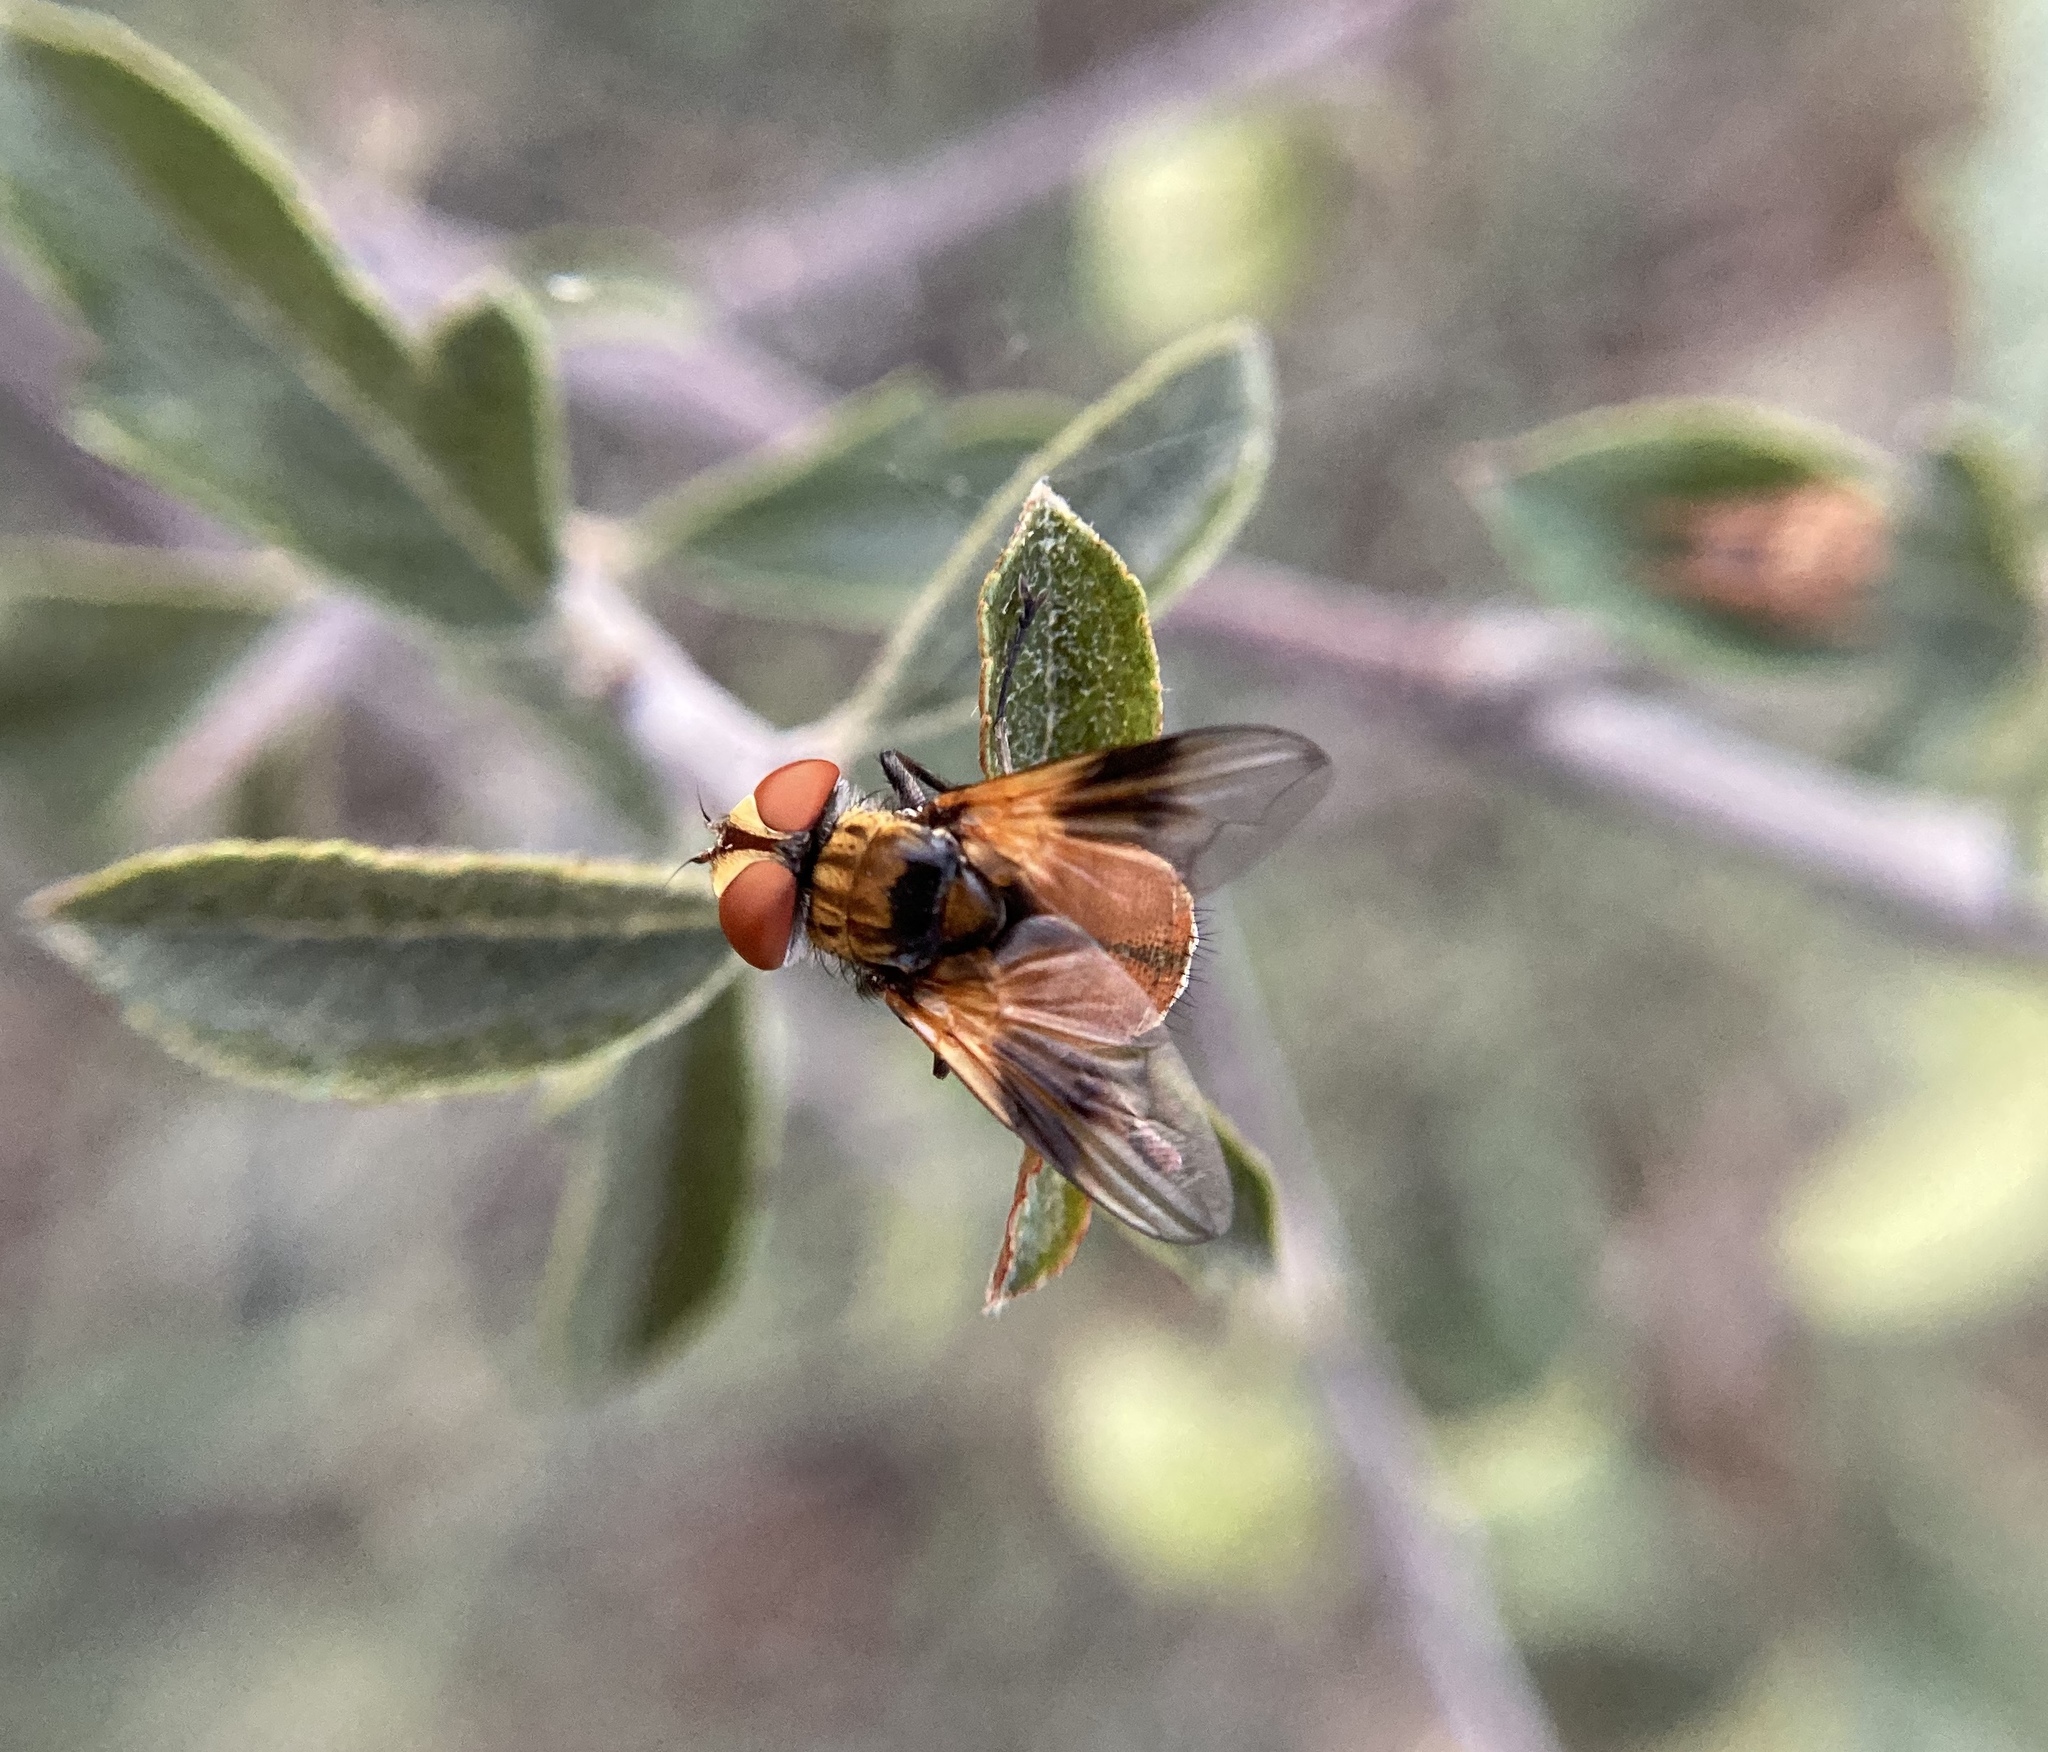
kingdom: Animalia
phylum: Arthropoda
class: Insecta
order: Diptera
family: Tachinidae
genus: Ectophasia
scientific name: Ectophasia oblonga
